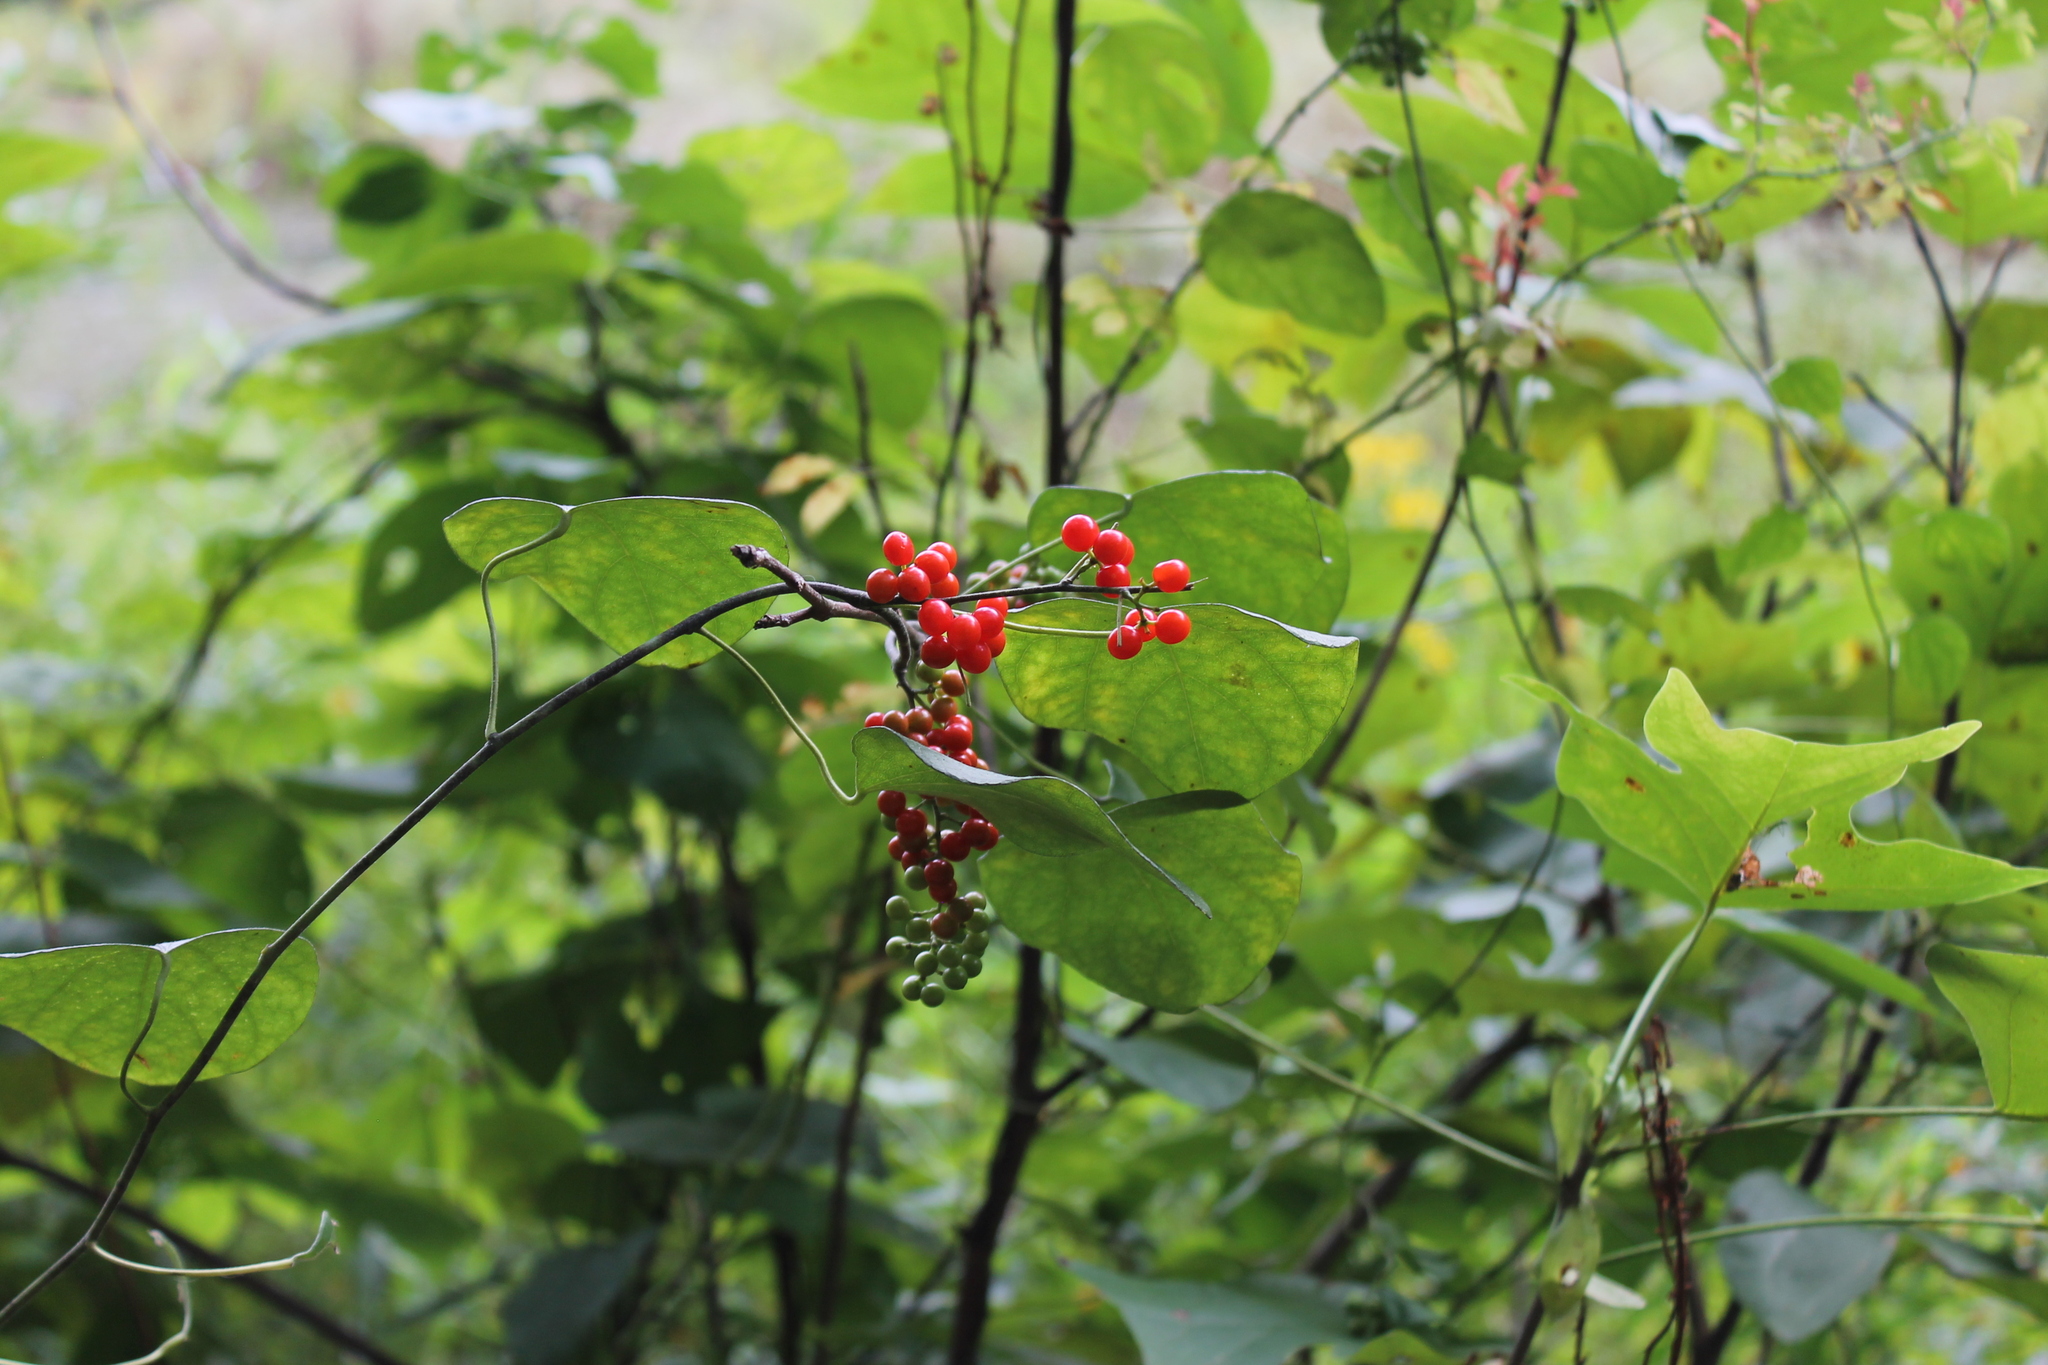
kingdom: Plantae
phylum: Tracheophyta
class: Magnoliopsida
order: Ranunculales
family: Menispermaceae
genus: Cocculus
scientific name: Cocculus carolinus
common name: Carolina moonseed
